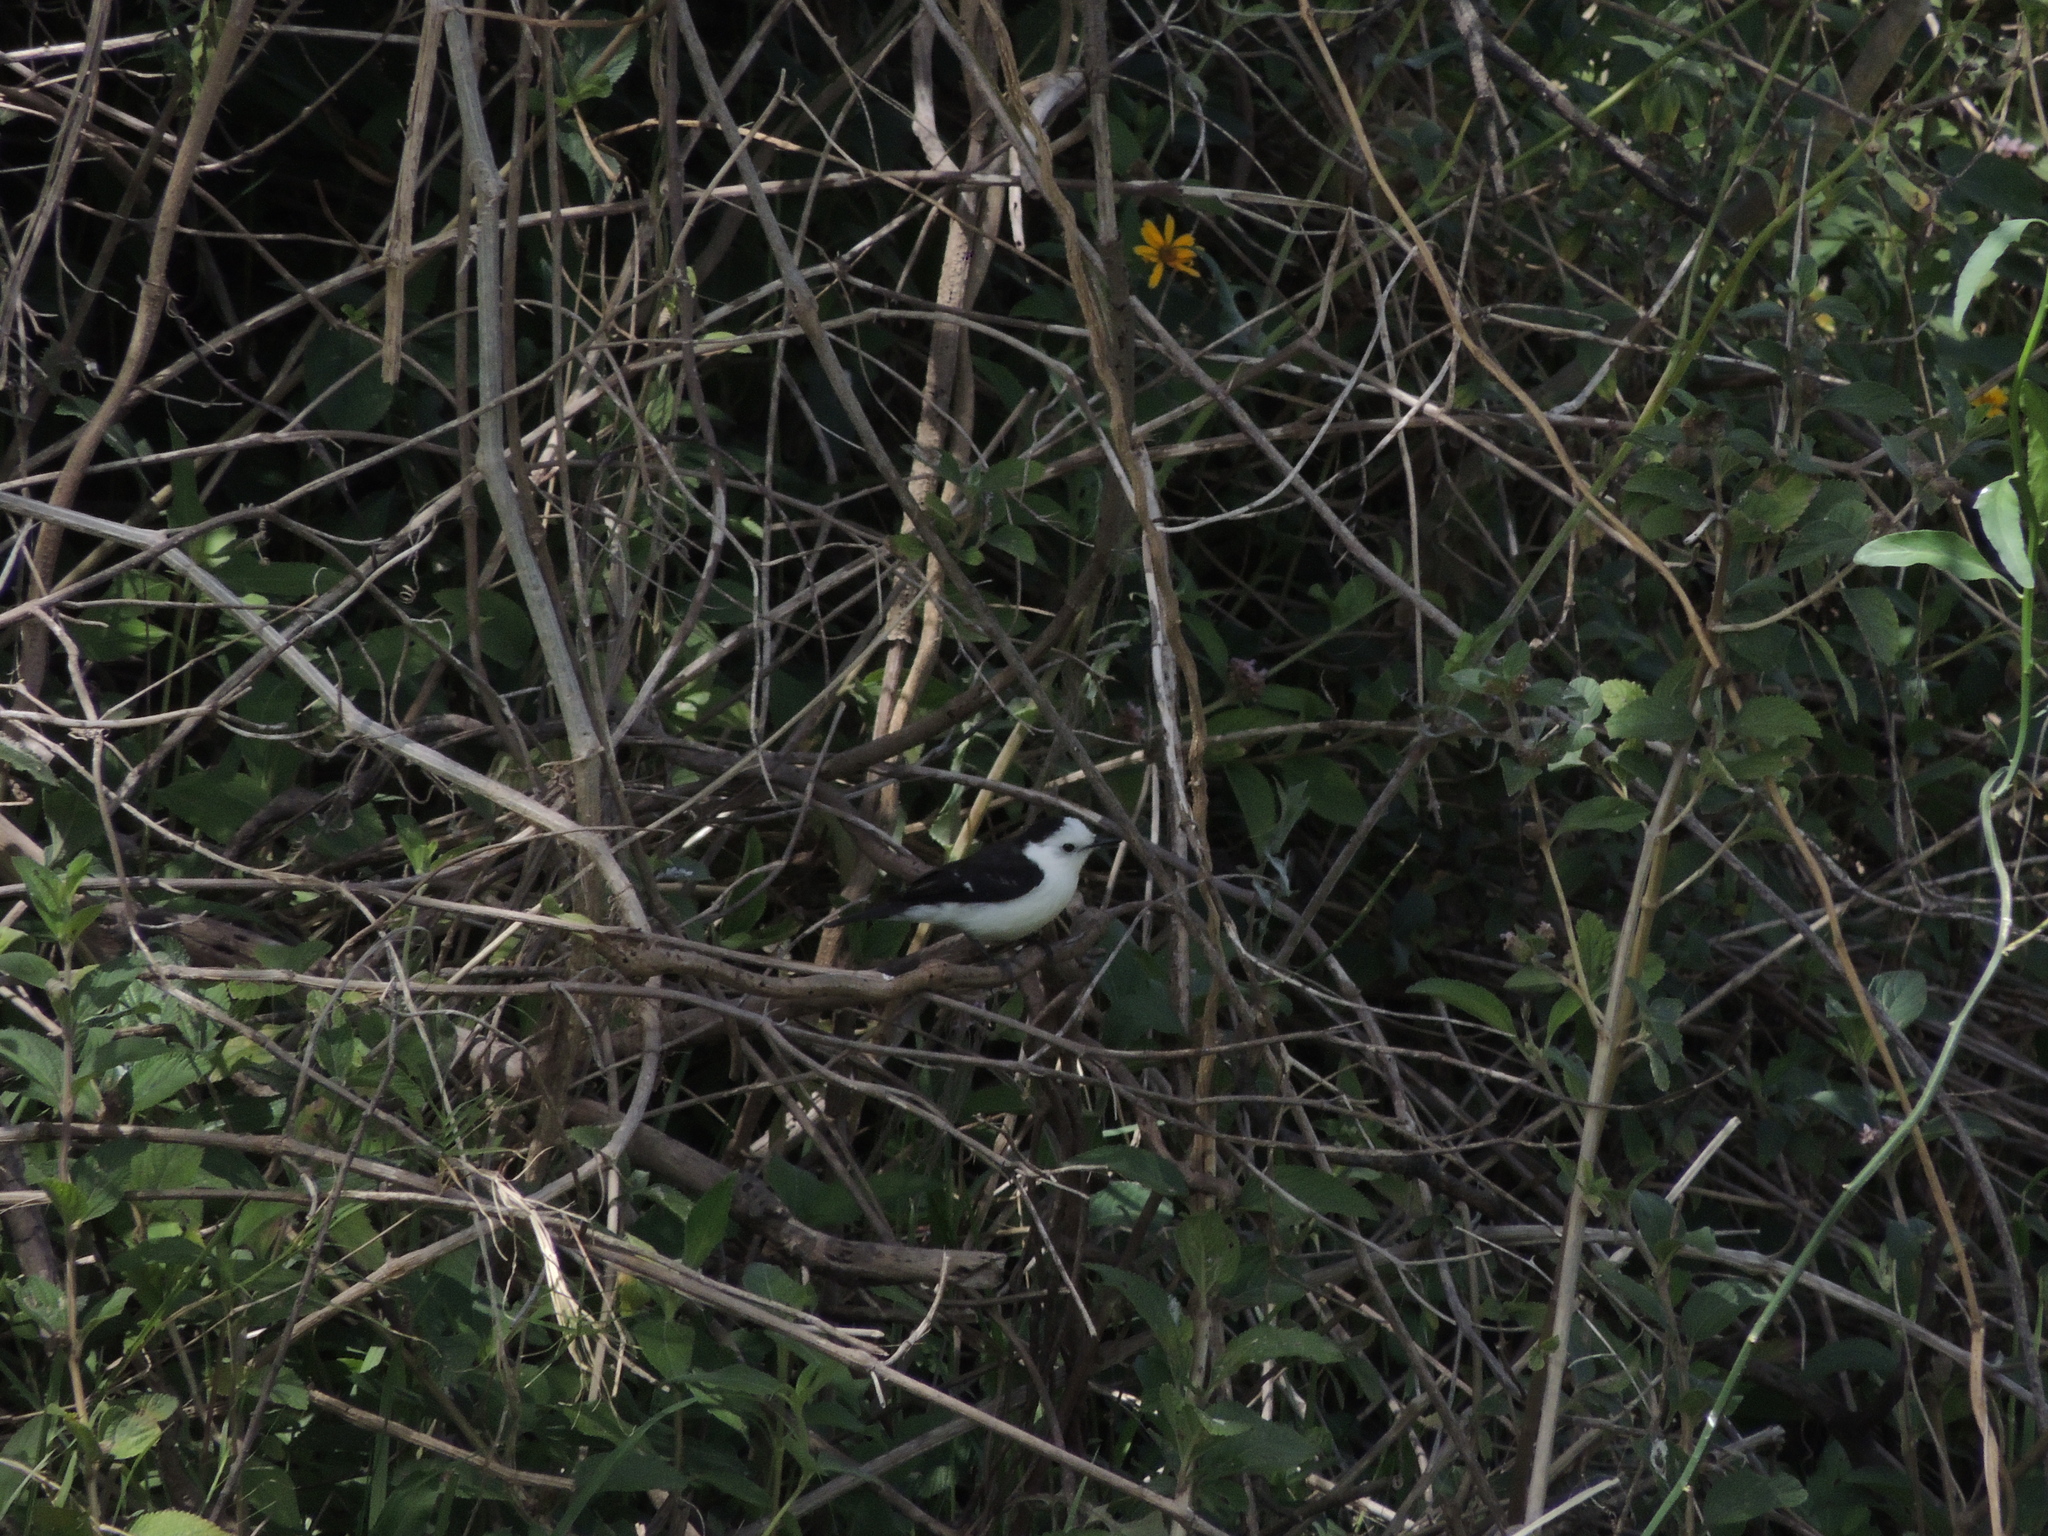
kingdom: Animalia
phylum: Chordata
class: Aves
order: Passeriformes
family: Tyrannidae
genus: Fluvicola
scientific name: Fluvicola pica
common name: Pied water-tyrant
